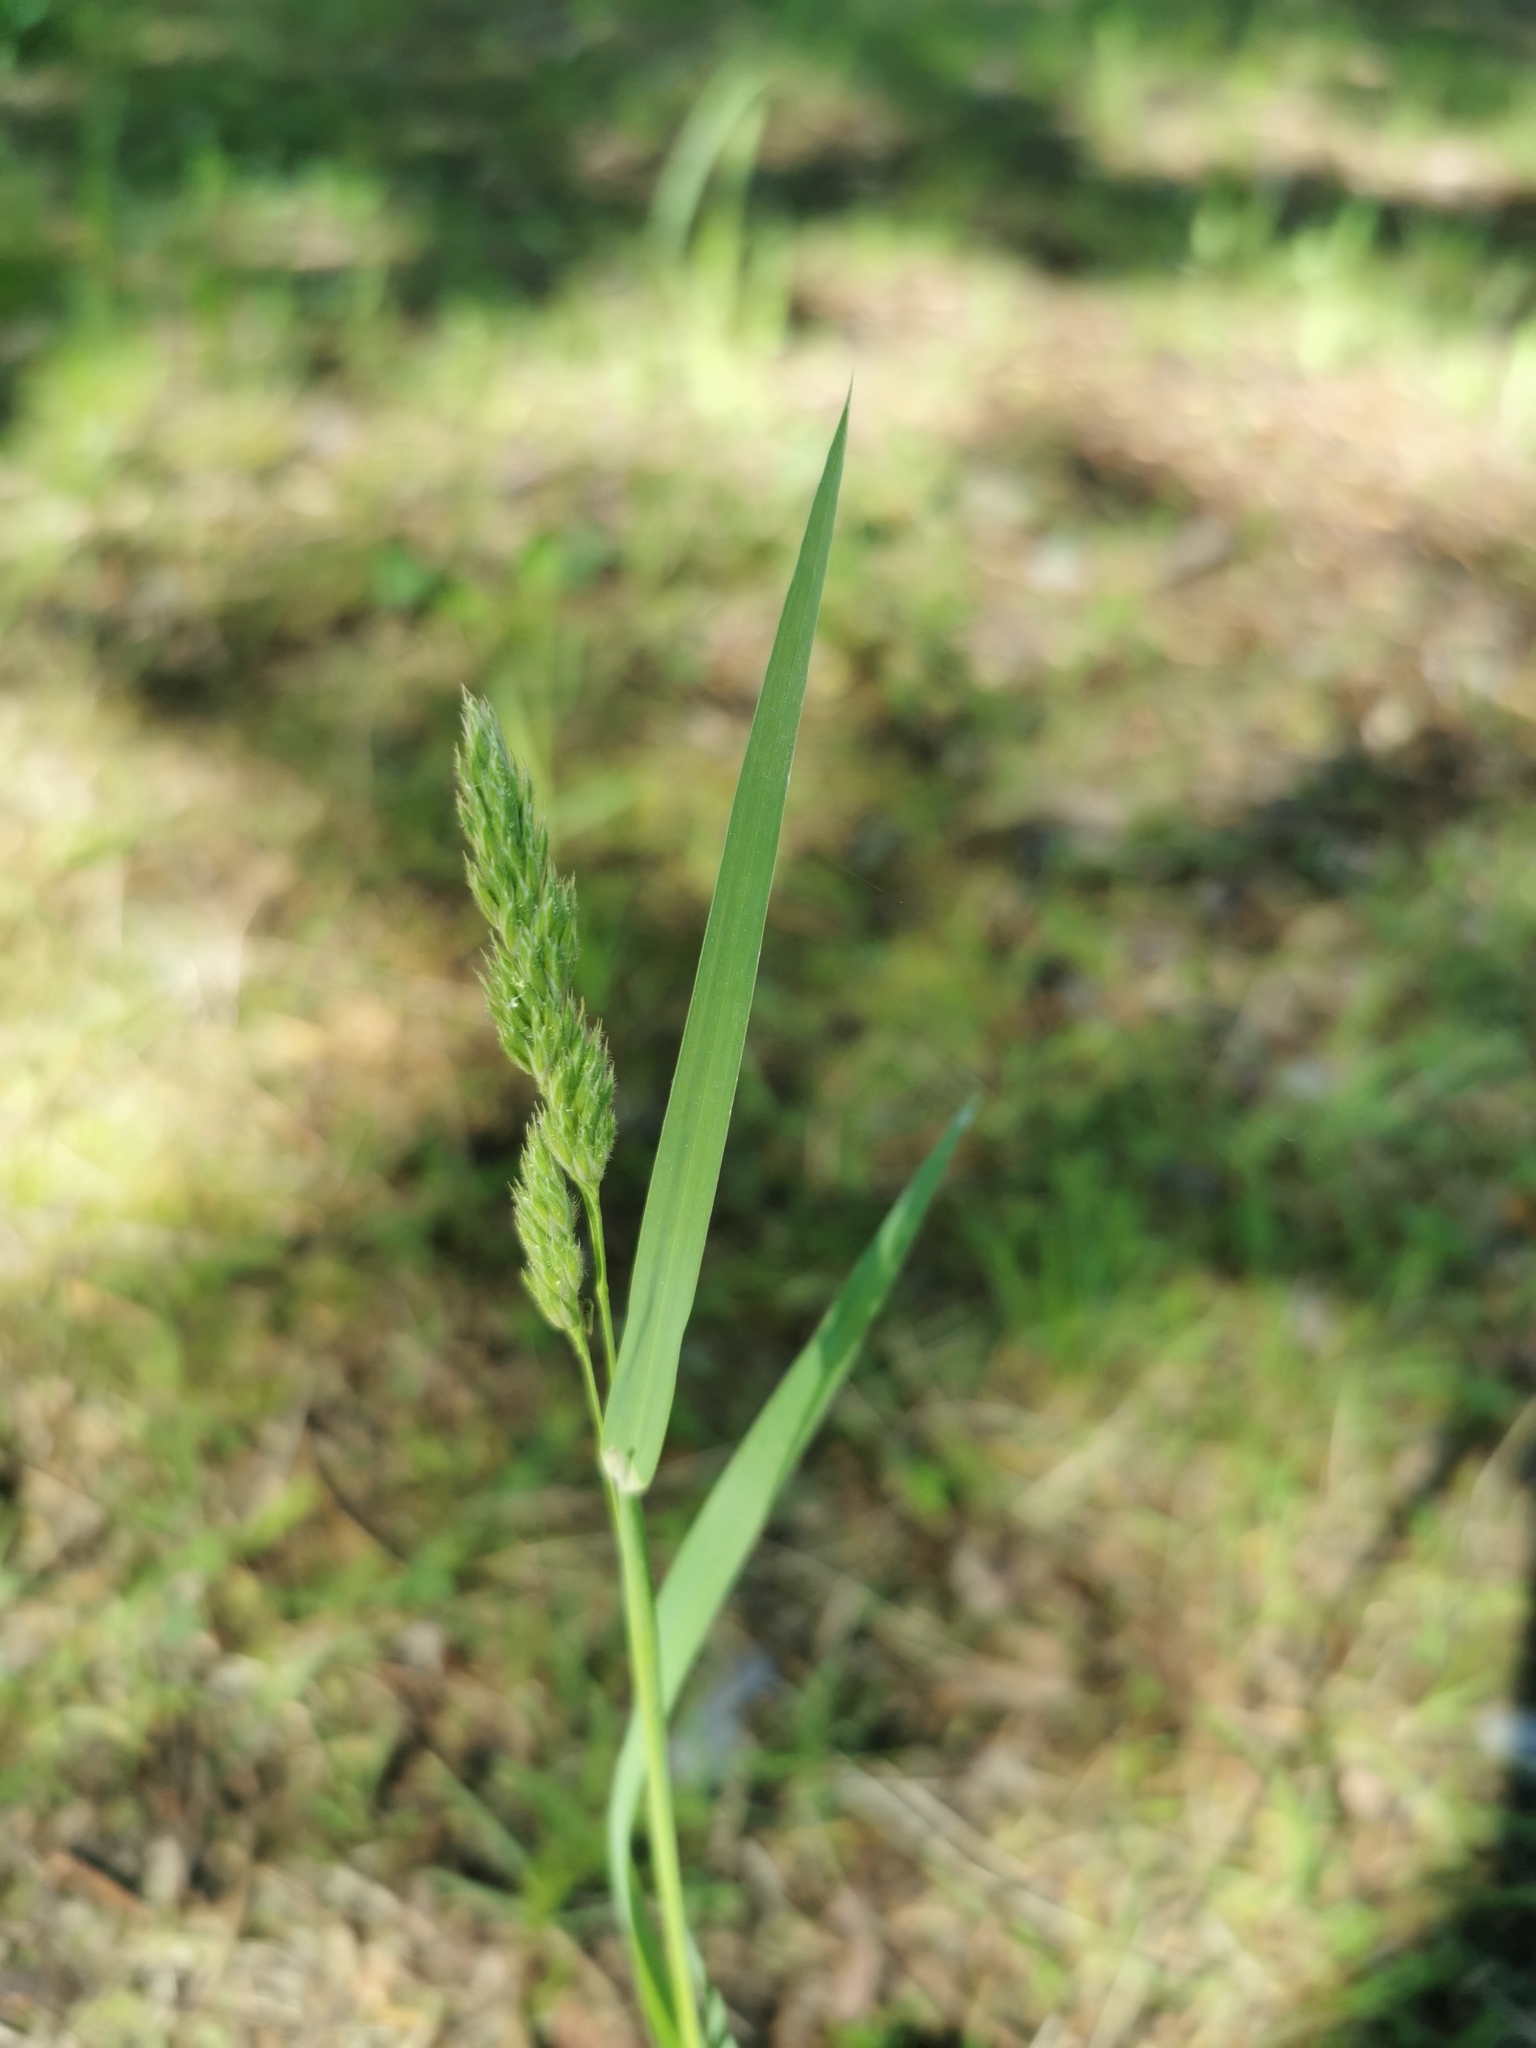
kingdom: Plantae
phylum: Tracheophyta
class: Liliopsida
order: Poales
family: Poaceae
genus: Dactylis
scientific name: Dactylis glomerata
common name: Orchardgrass
